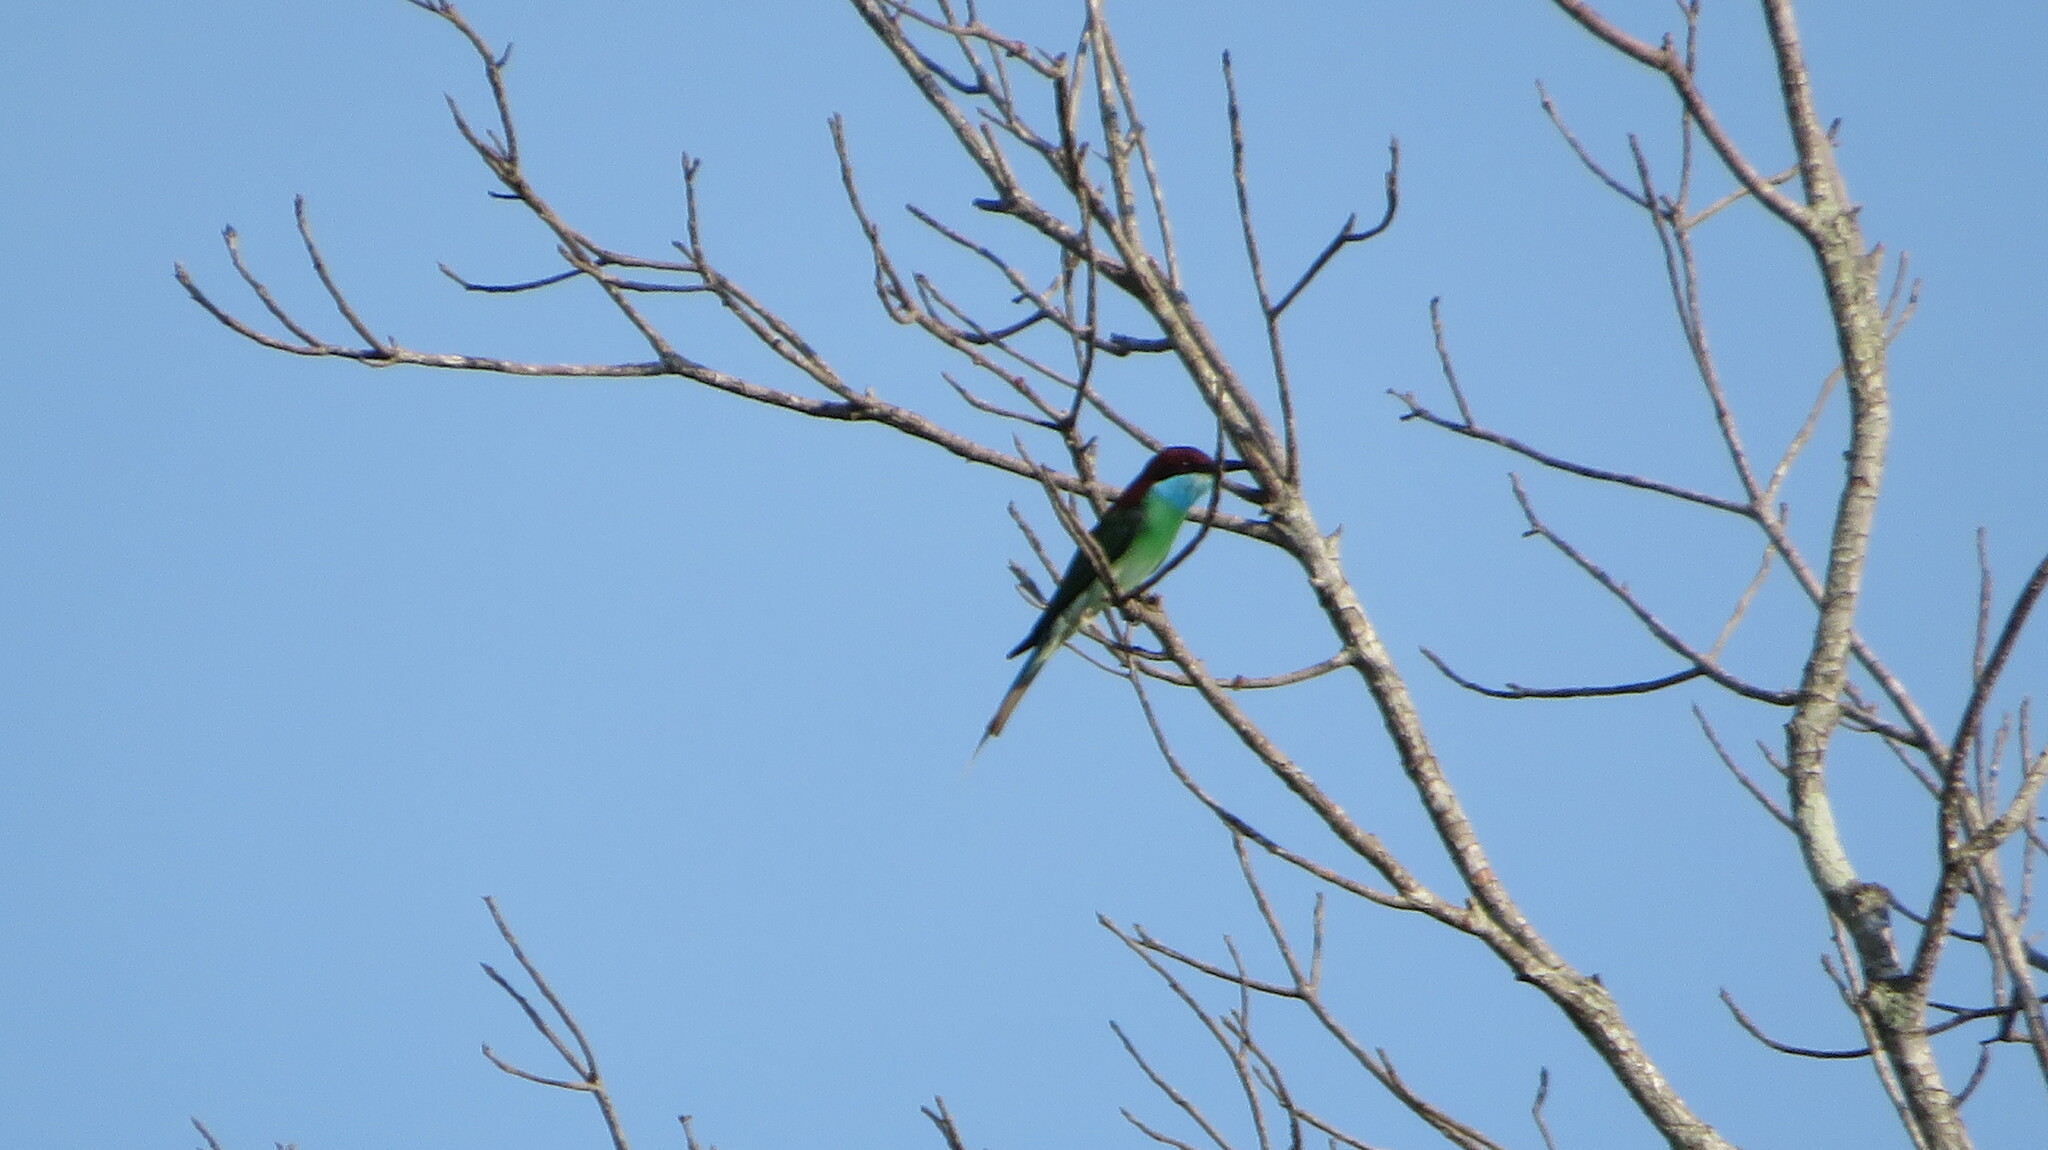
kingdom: Animalia
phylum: Chordata
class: Aves
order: Coraciiformes
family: Meropidae
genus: Merops
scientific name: Merops viridis
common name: Blue-throated bee-eater
